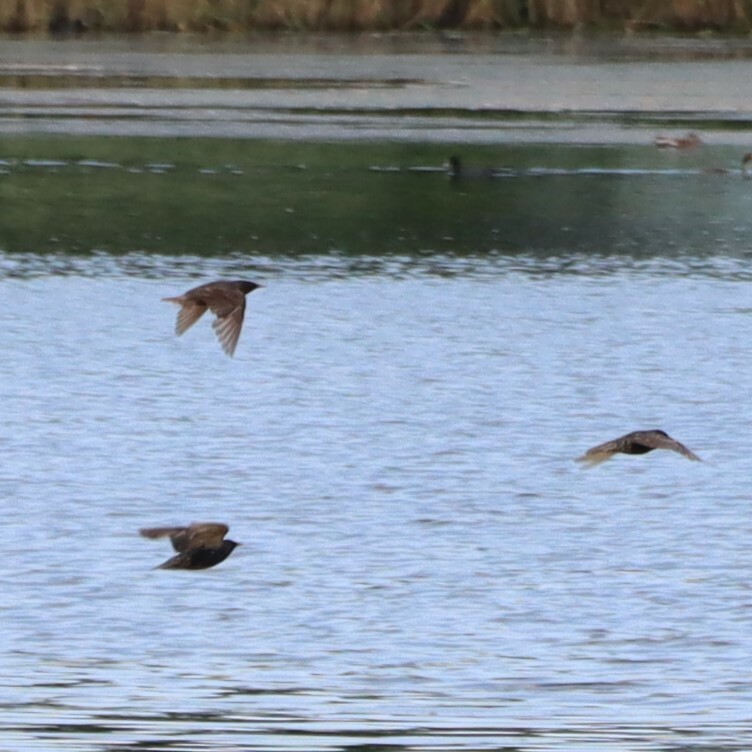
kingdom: Animalia
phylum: Chordata
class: Aves
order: Passeriformes
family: Sturnidae
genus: Sturnus
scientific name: Sturnus vulgaris
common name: Common starling
